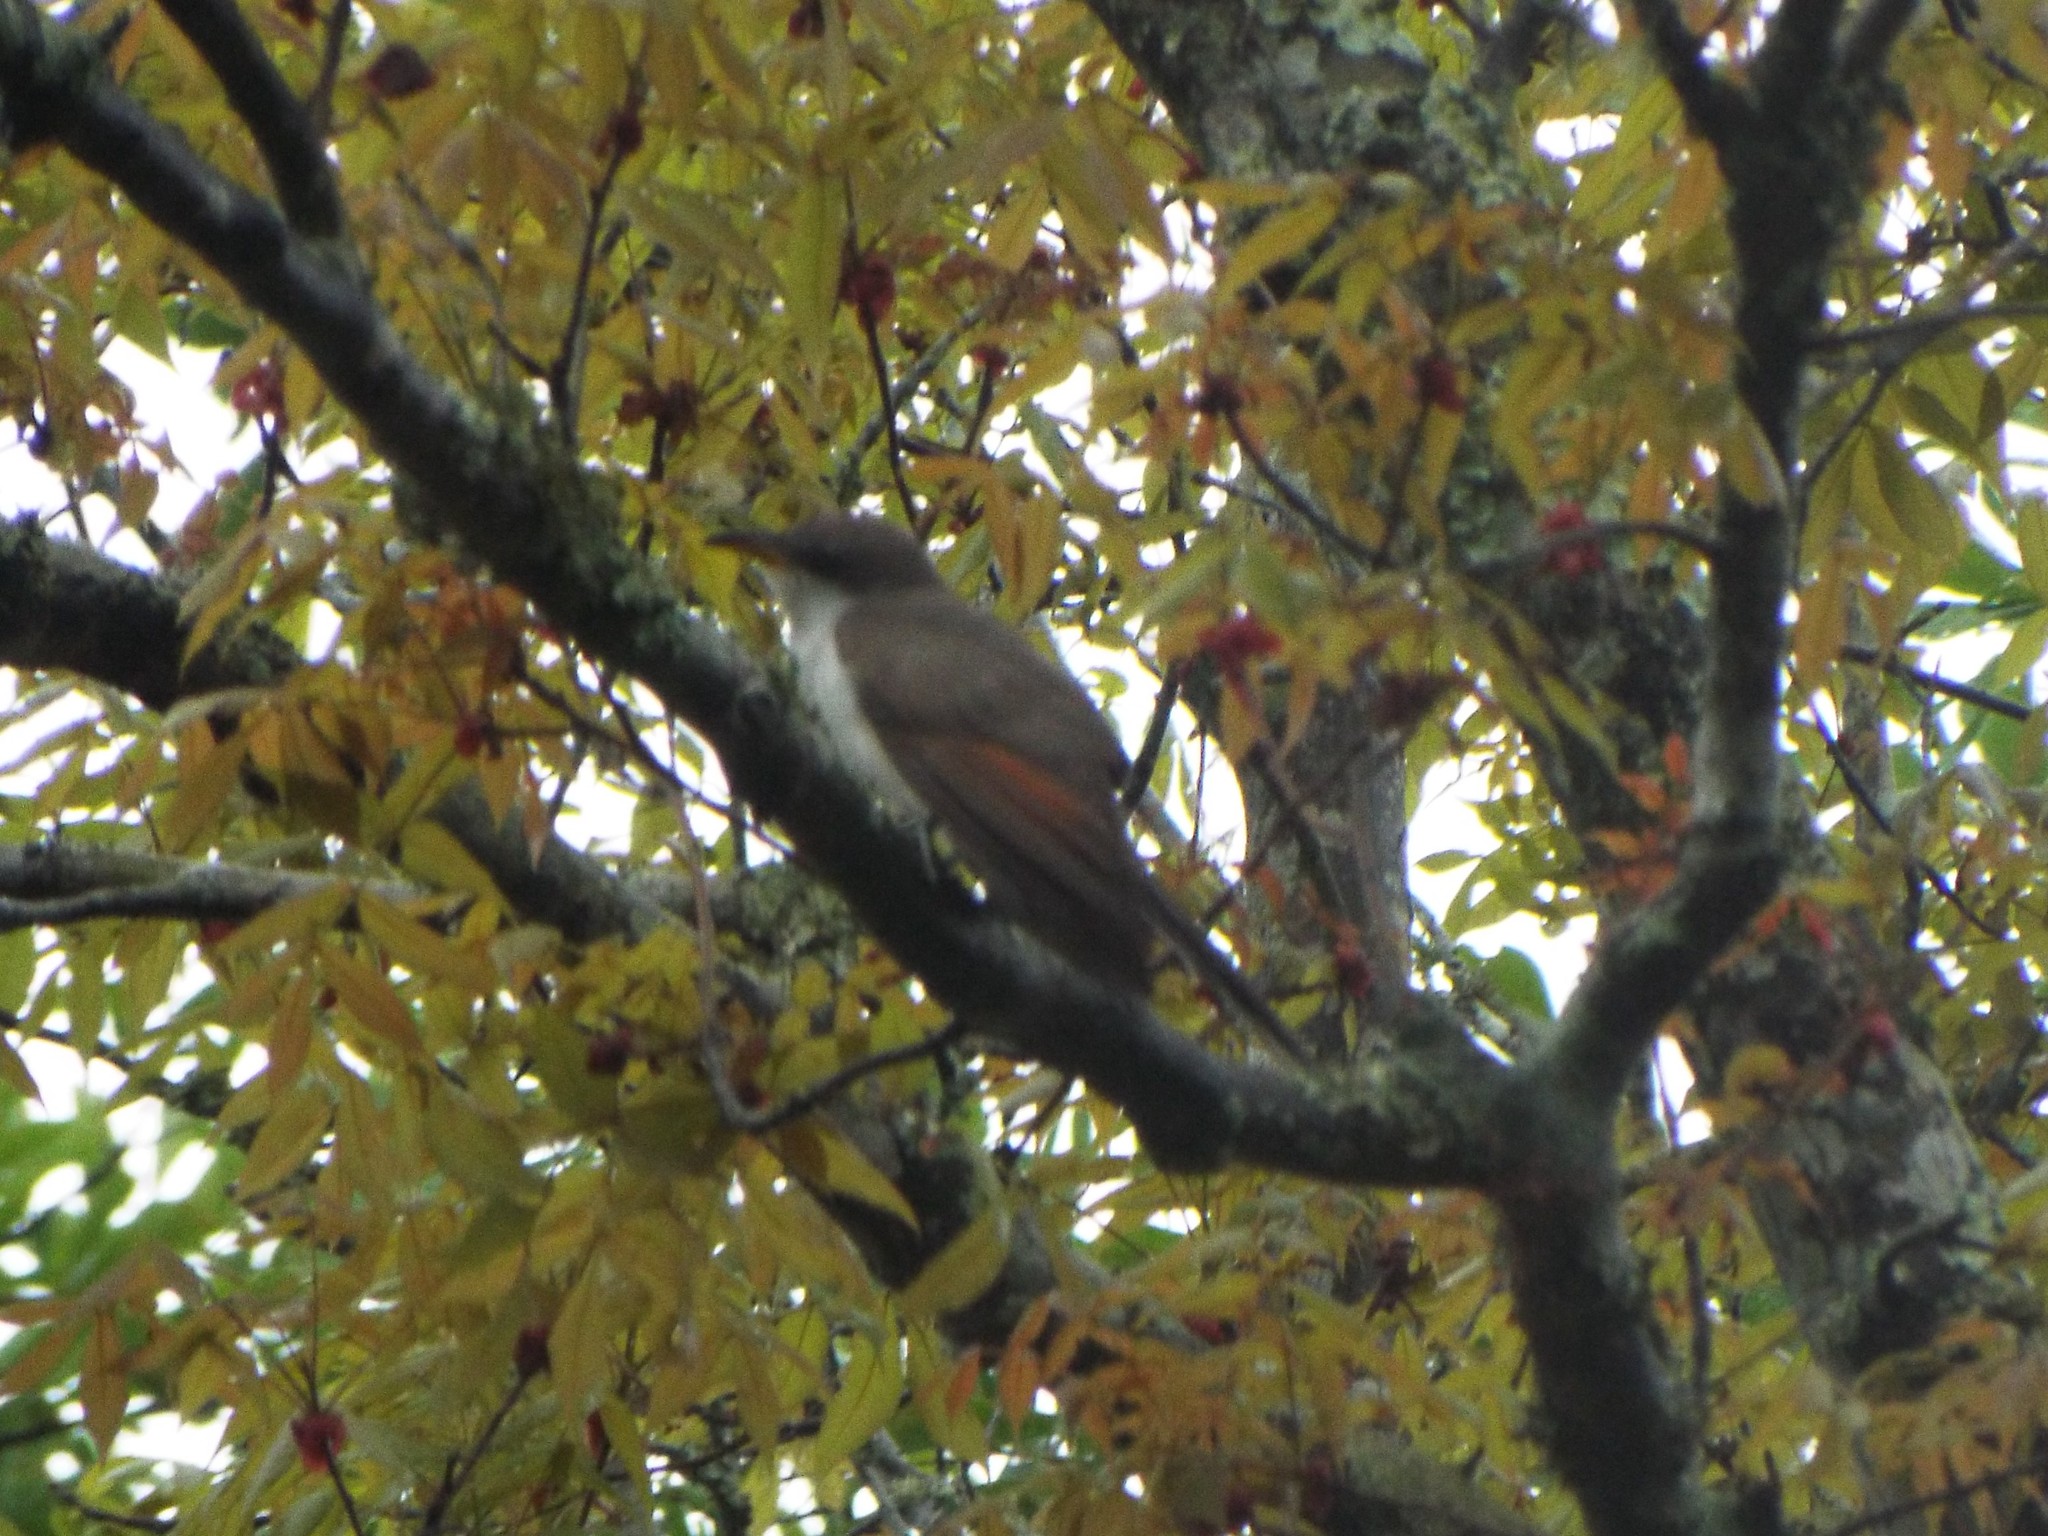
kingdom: Animalia
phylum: Chordata
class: Aves
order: Cuculiformes
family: Cuculidae
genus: Coccyzus
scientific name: Coccyzus americanus
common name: Yellow-billed cuckoo
